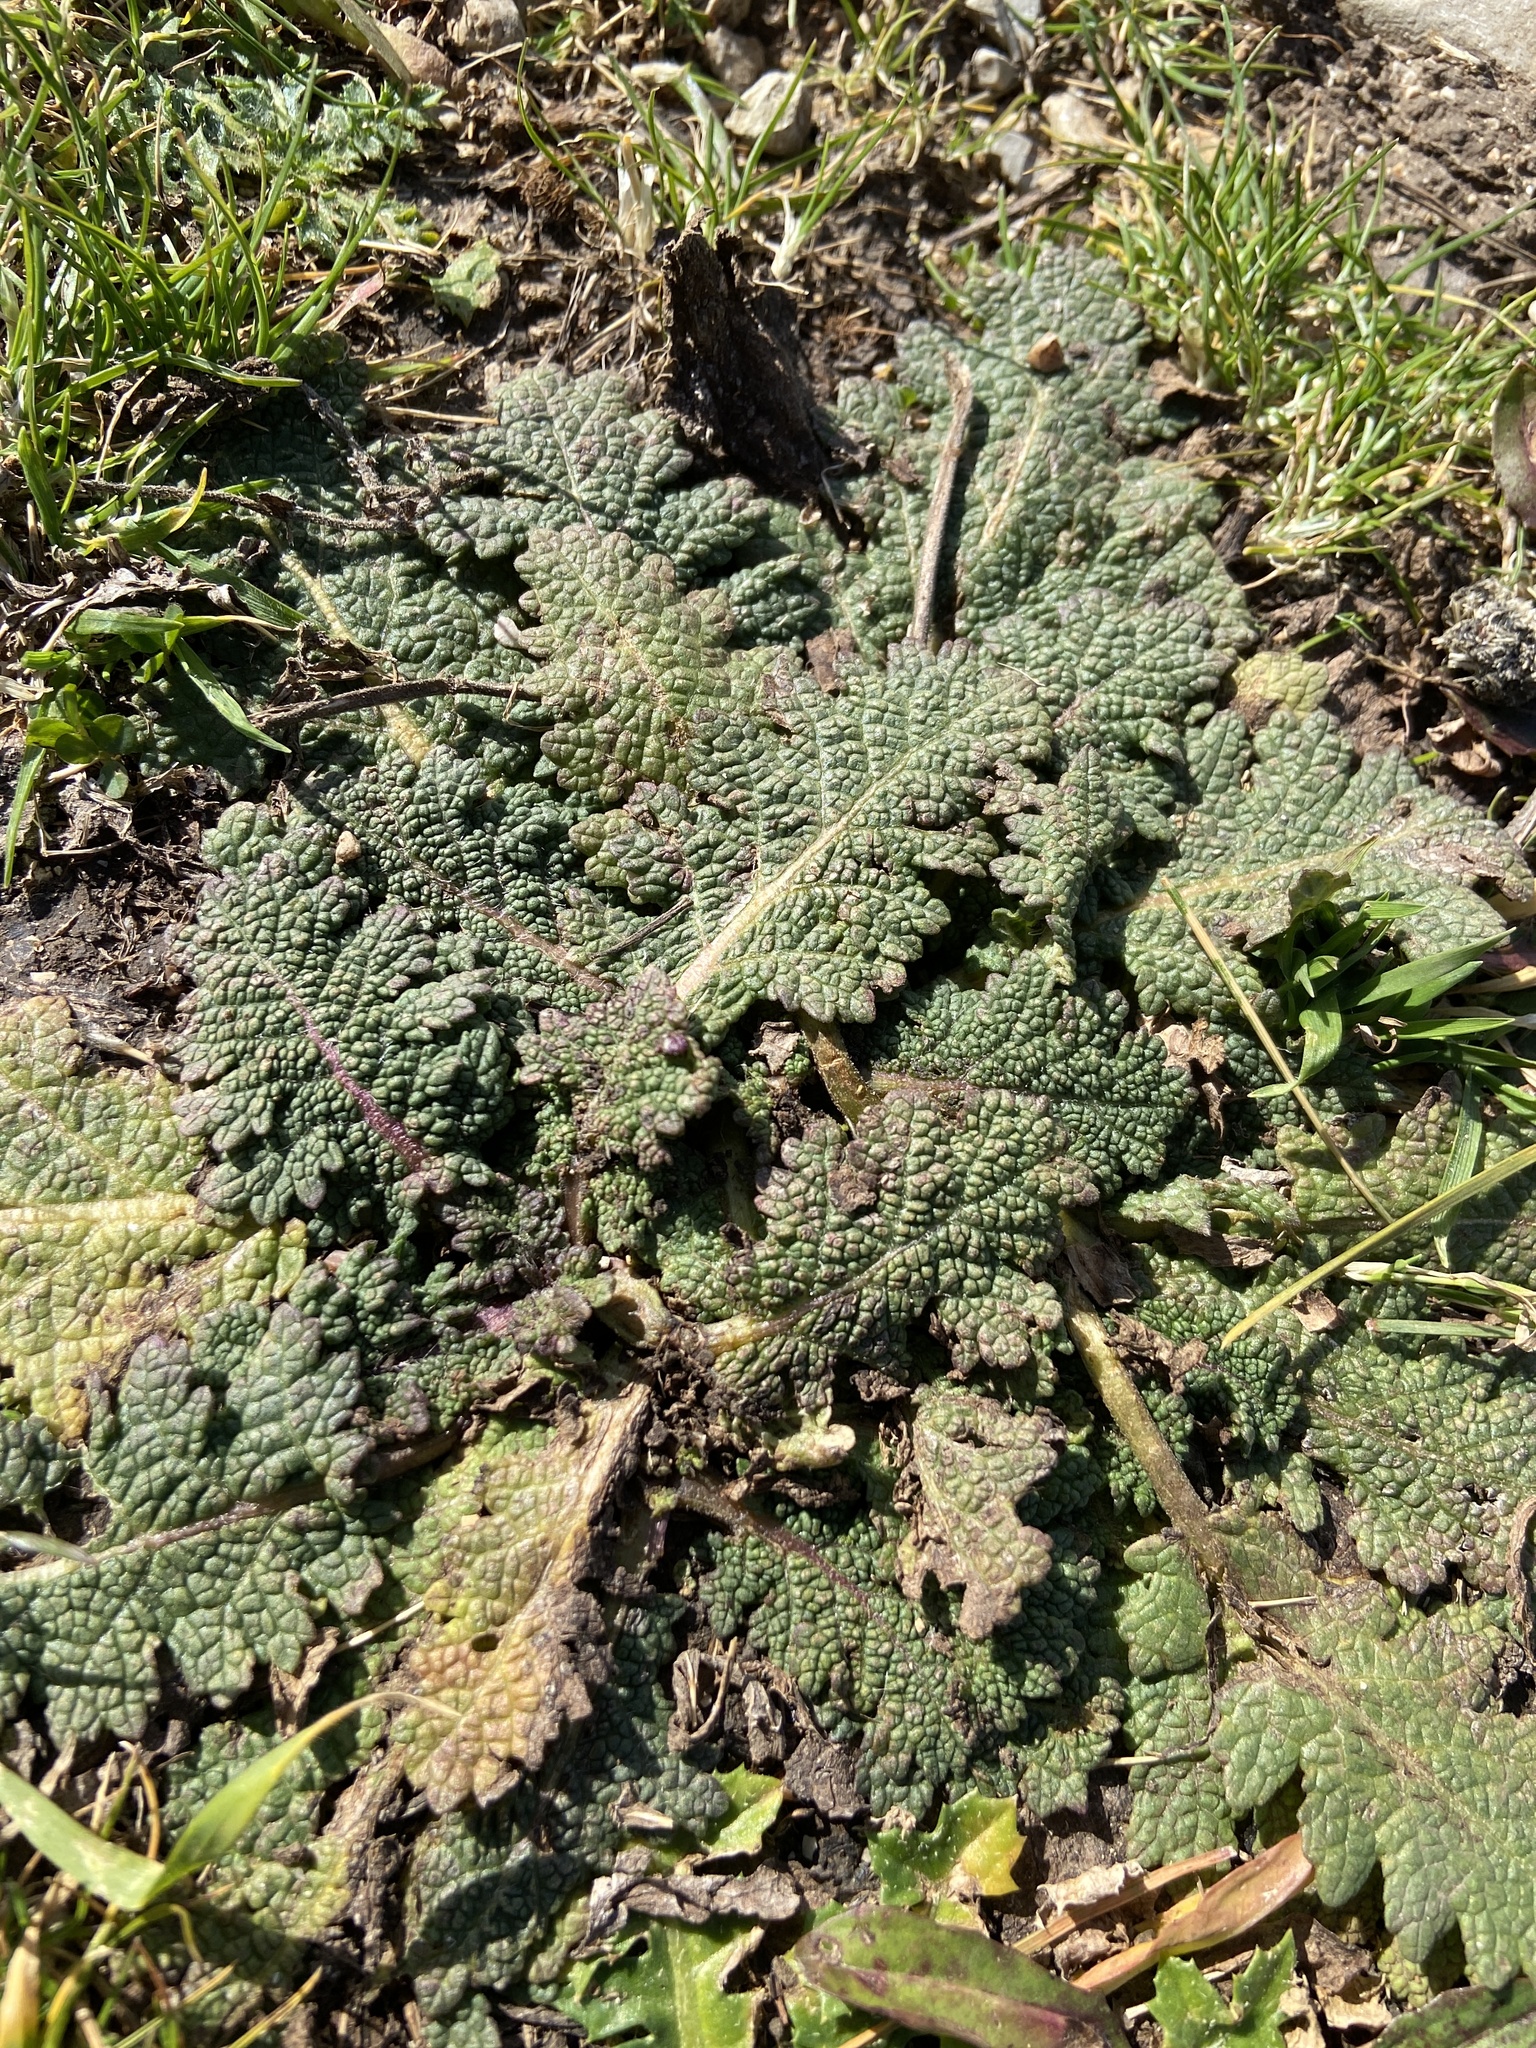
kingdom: Plantae
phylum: Tracheophyta
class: Magnoliopsida
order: Lamiales
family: Lamiaceae
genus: Salvia
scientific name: Salvia verbenaca
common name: Wild clary
